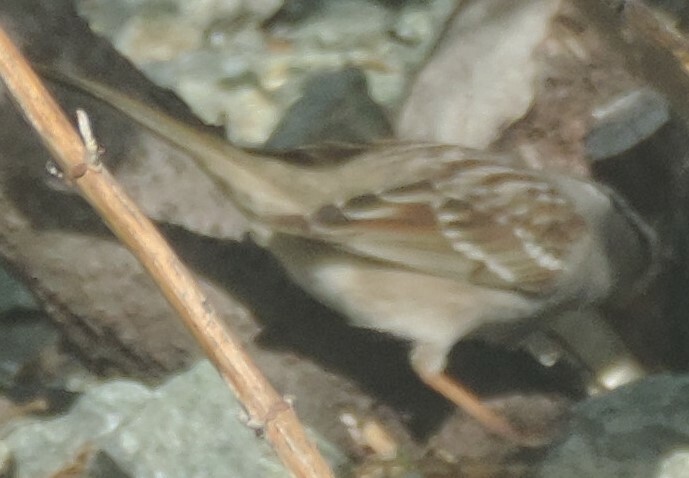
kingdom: Animalia
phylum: Chordata
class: Aves
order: Passeriformes
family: Passerellidae
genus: Zonotrichia
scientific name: Zonotrichia leucophrys
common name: White-crowned sparrow
